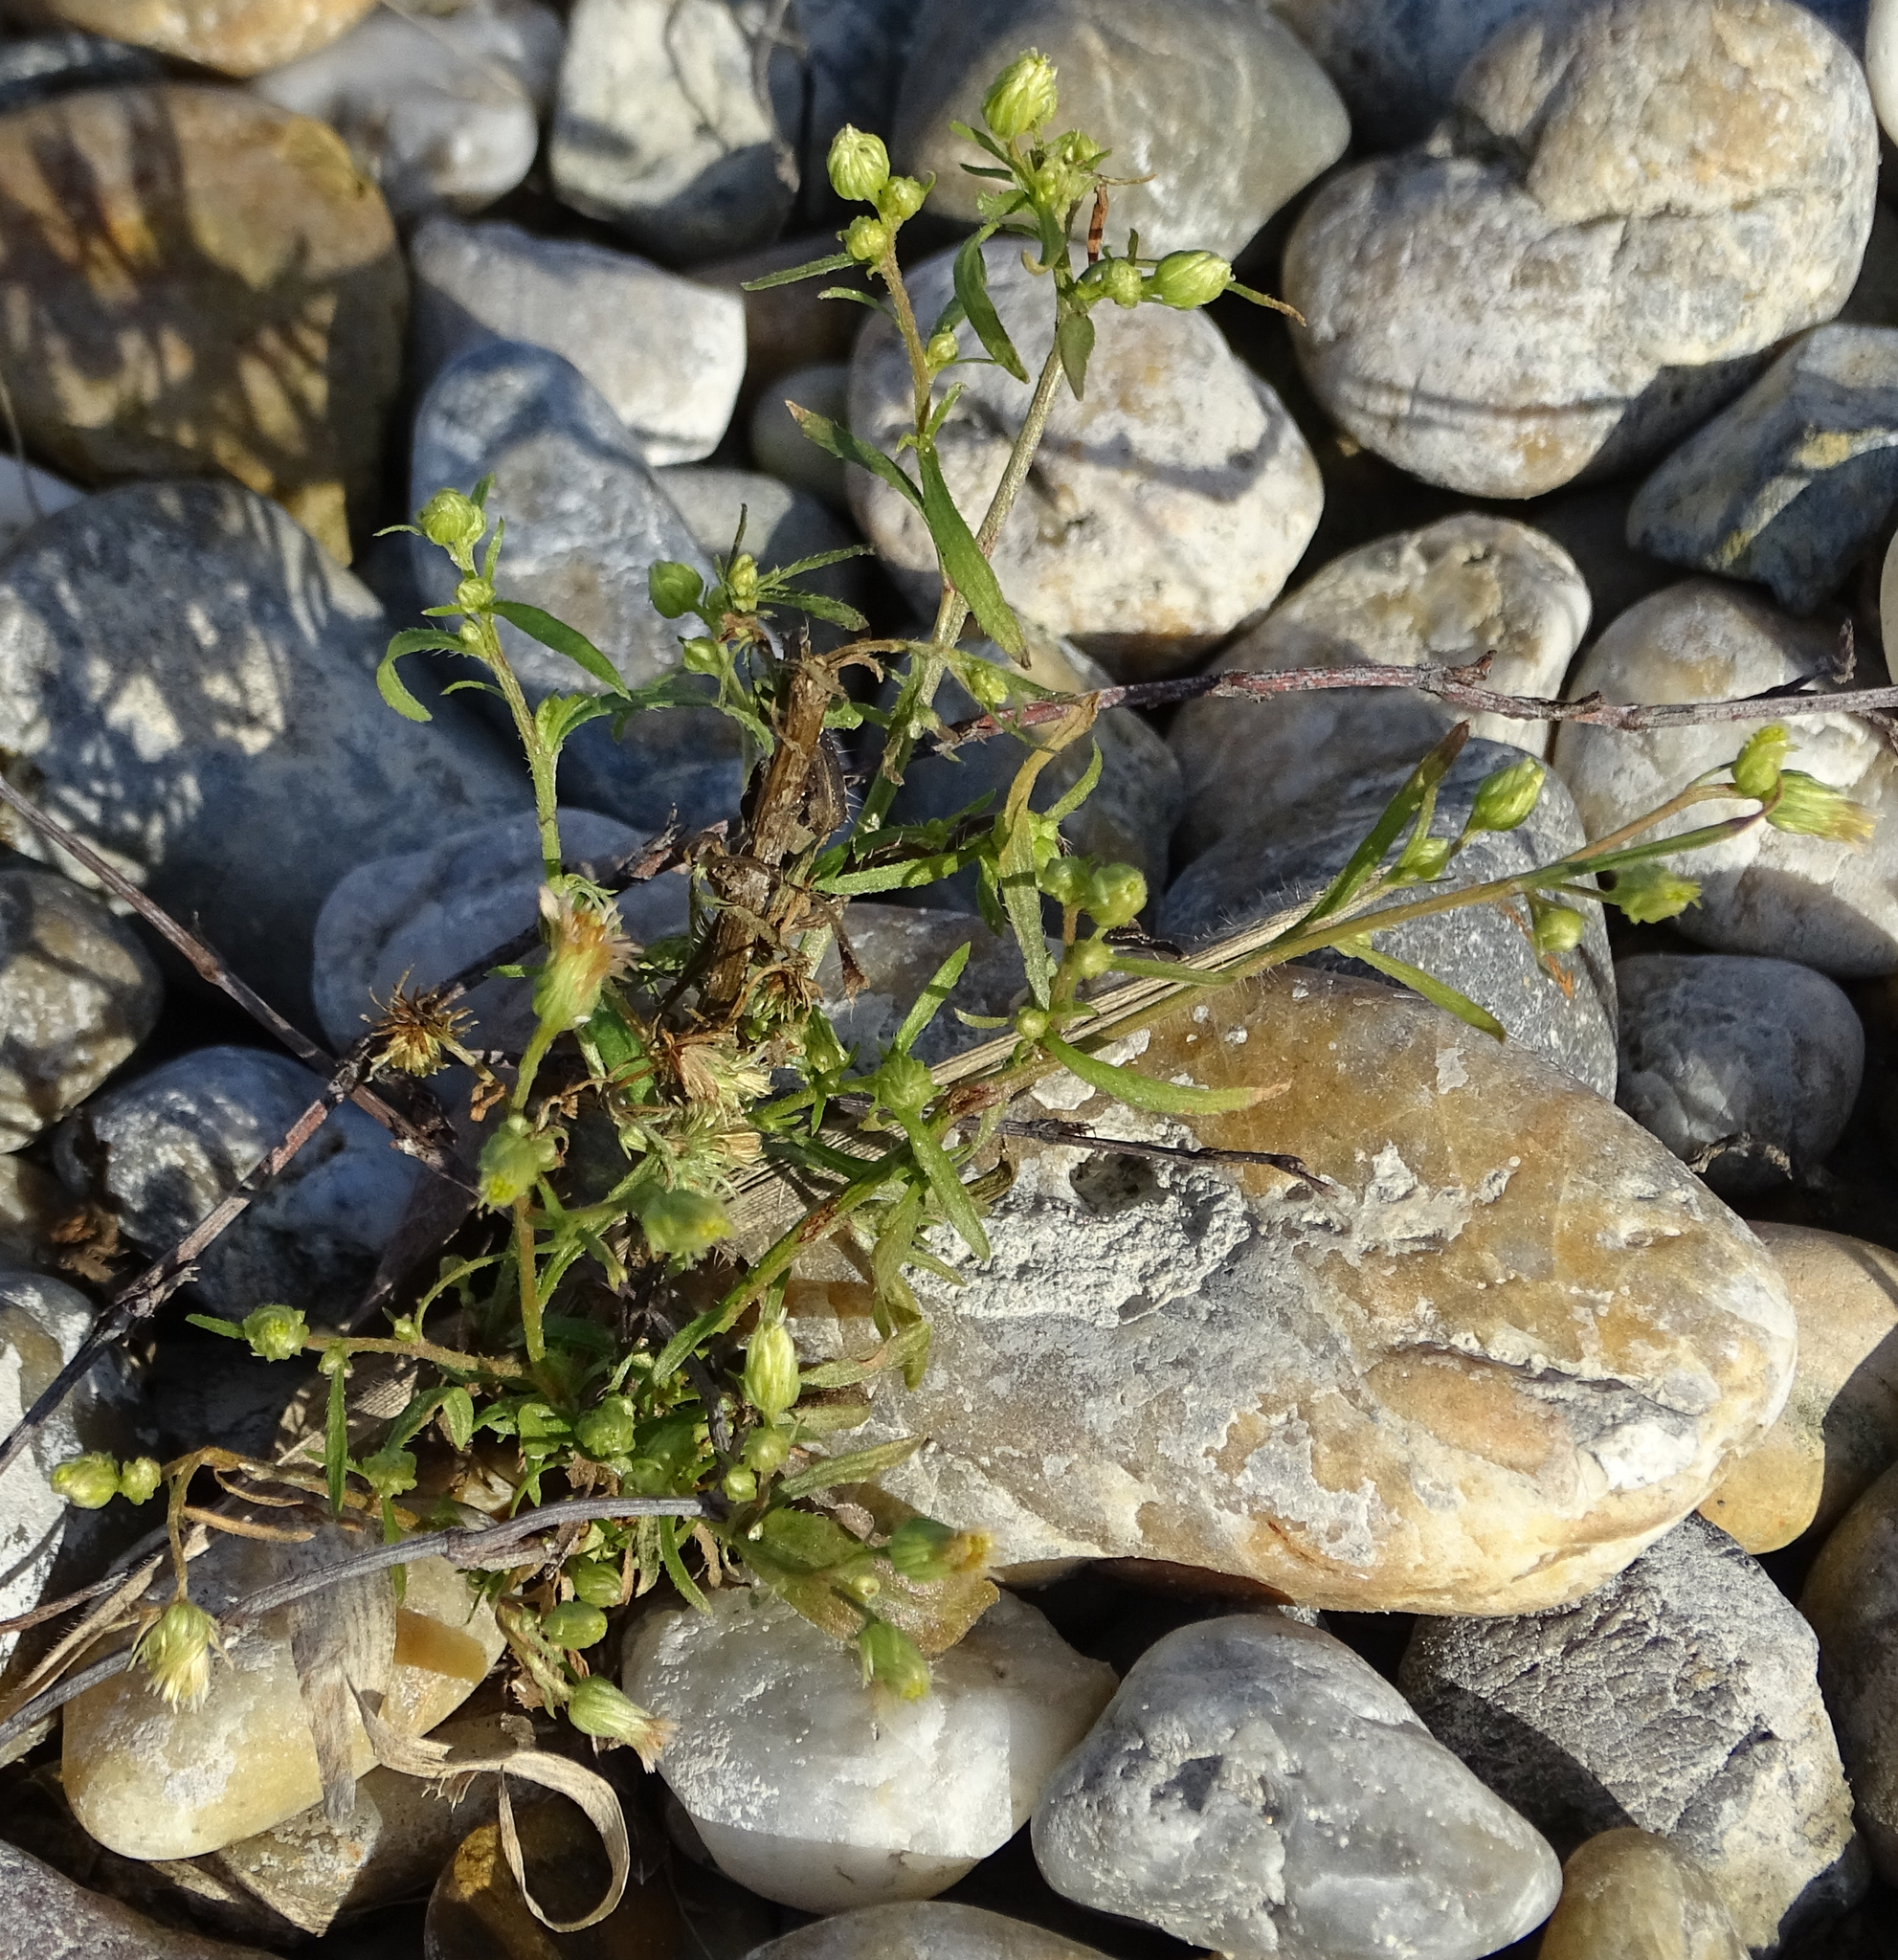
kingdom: Plantae
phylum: Tracheophyta
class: Magnoliopsida
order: Asterales
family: Asteraceae
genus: Erigeron
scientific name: Erigeron canadensis
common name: Canadian fleabane
